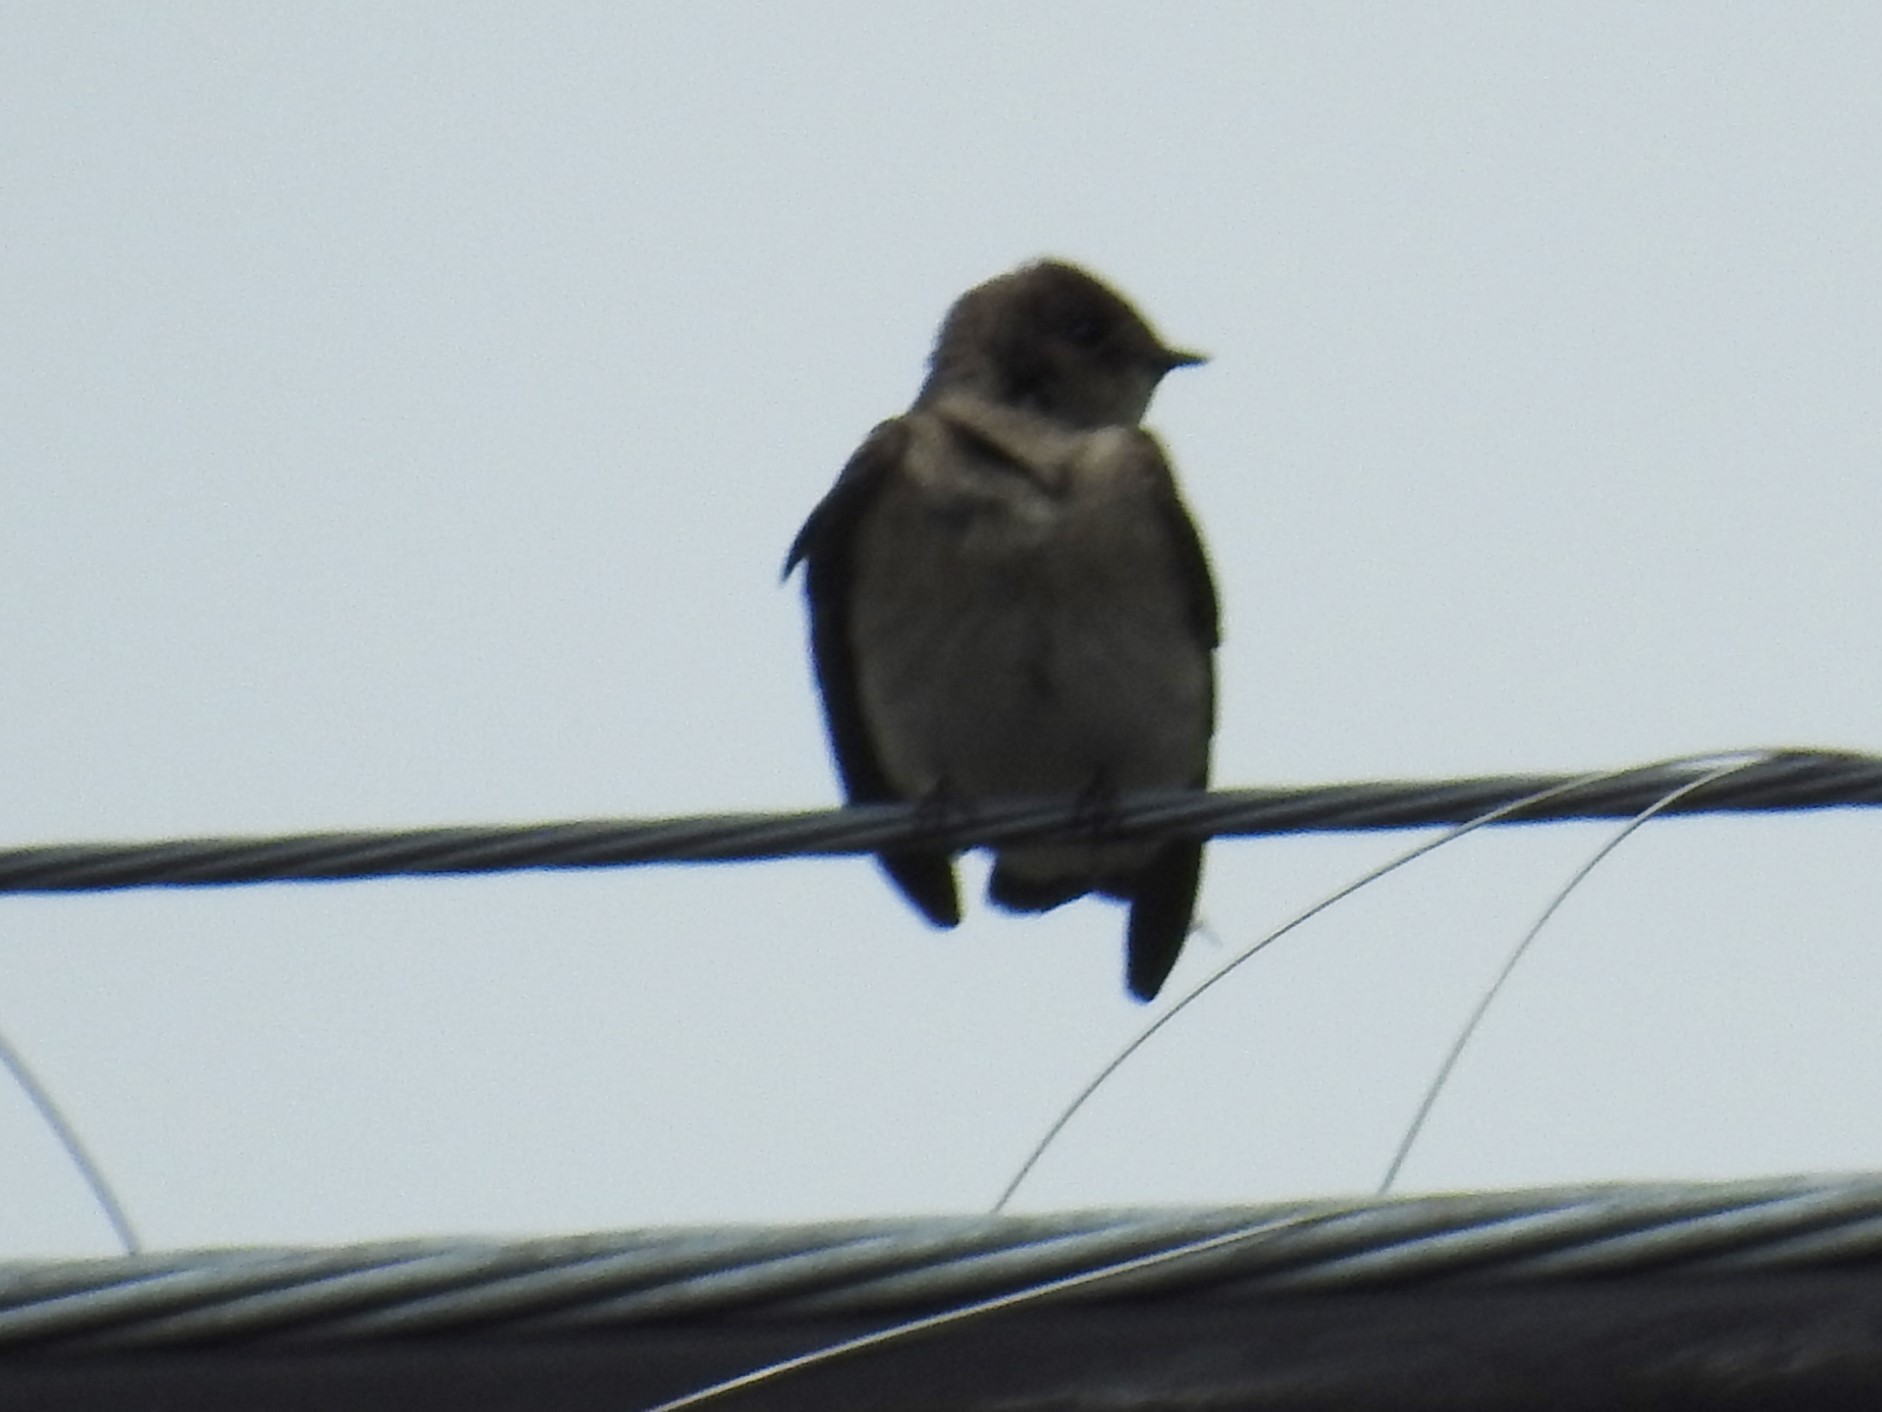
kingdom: Animalia
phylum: Chordata
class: Aves
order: Passeriformes
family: Hirundinidae
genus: Stelgidopteryx
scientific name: Stelgidopteryx serripennis
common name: Northern rough-winged swallow
